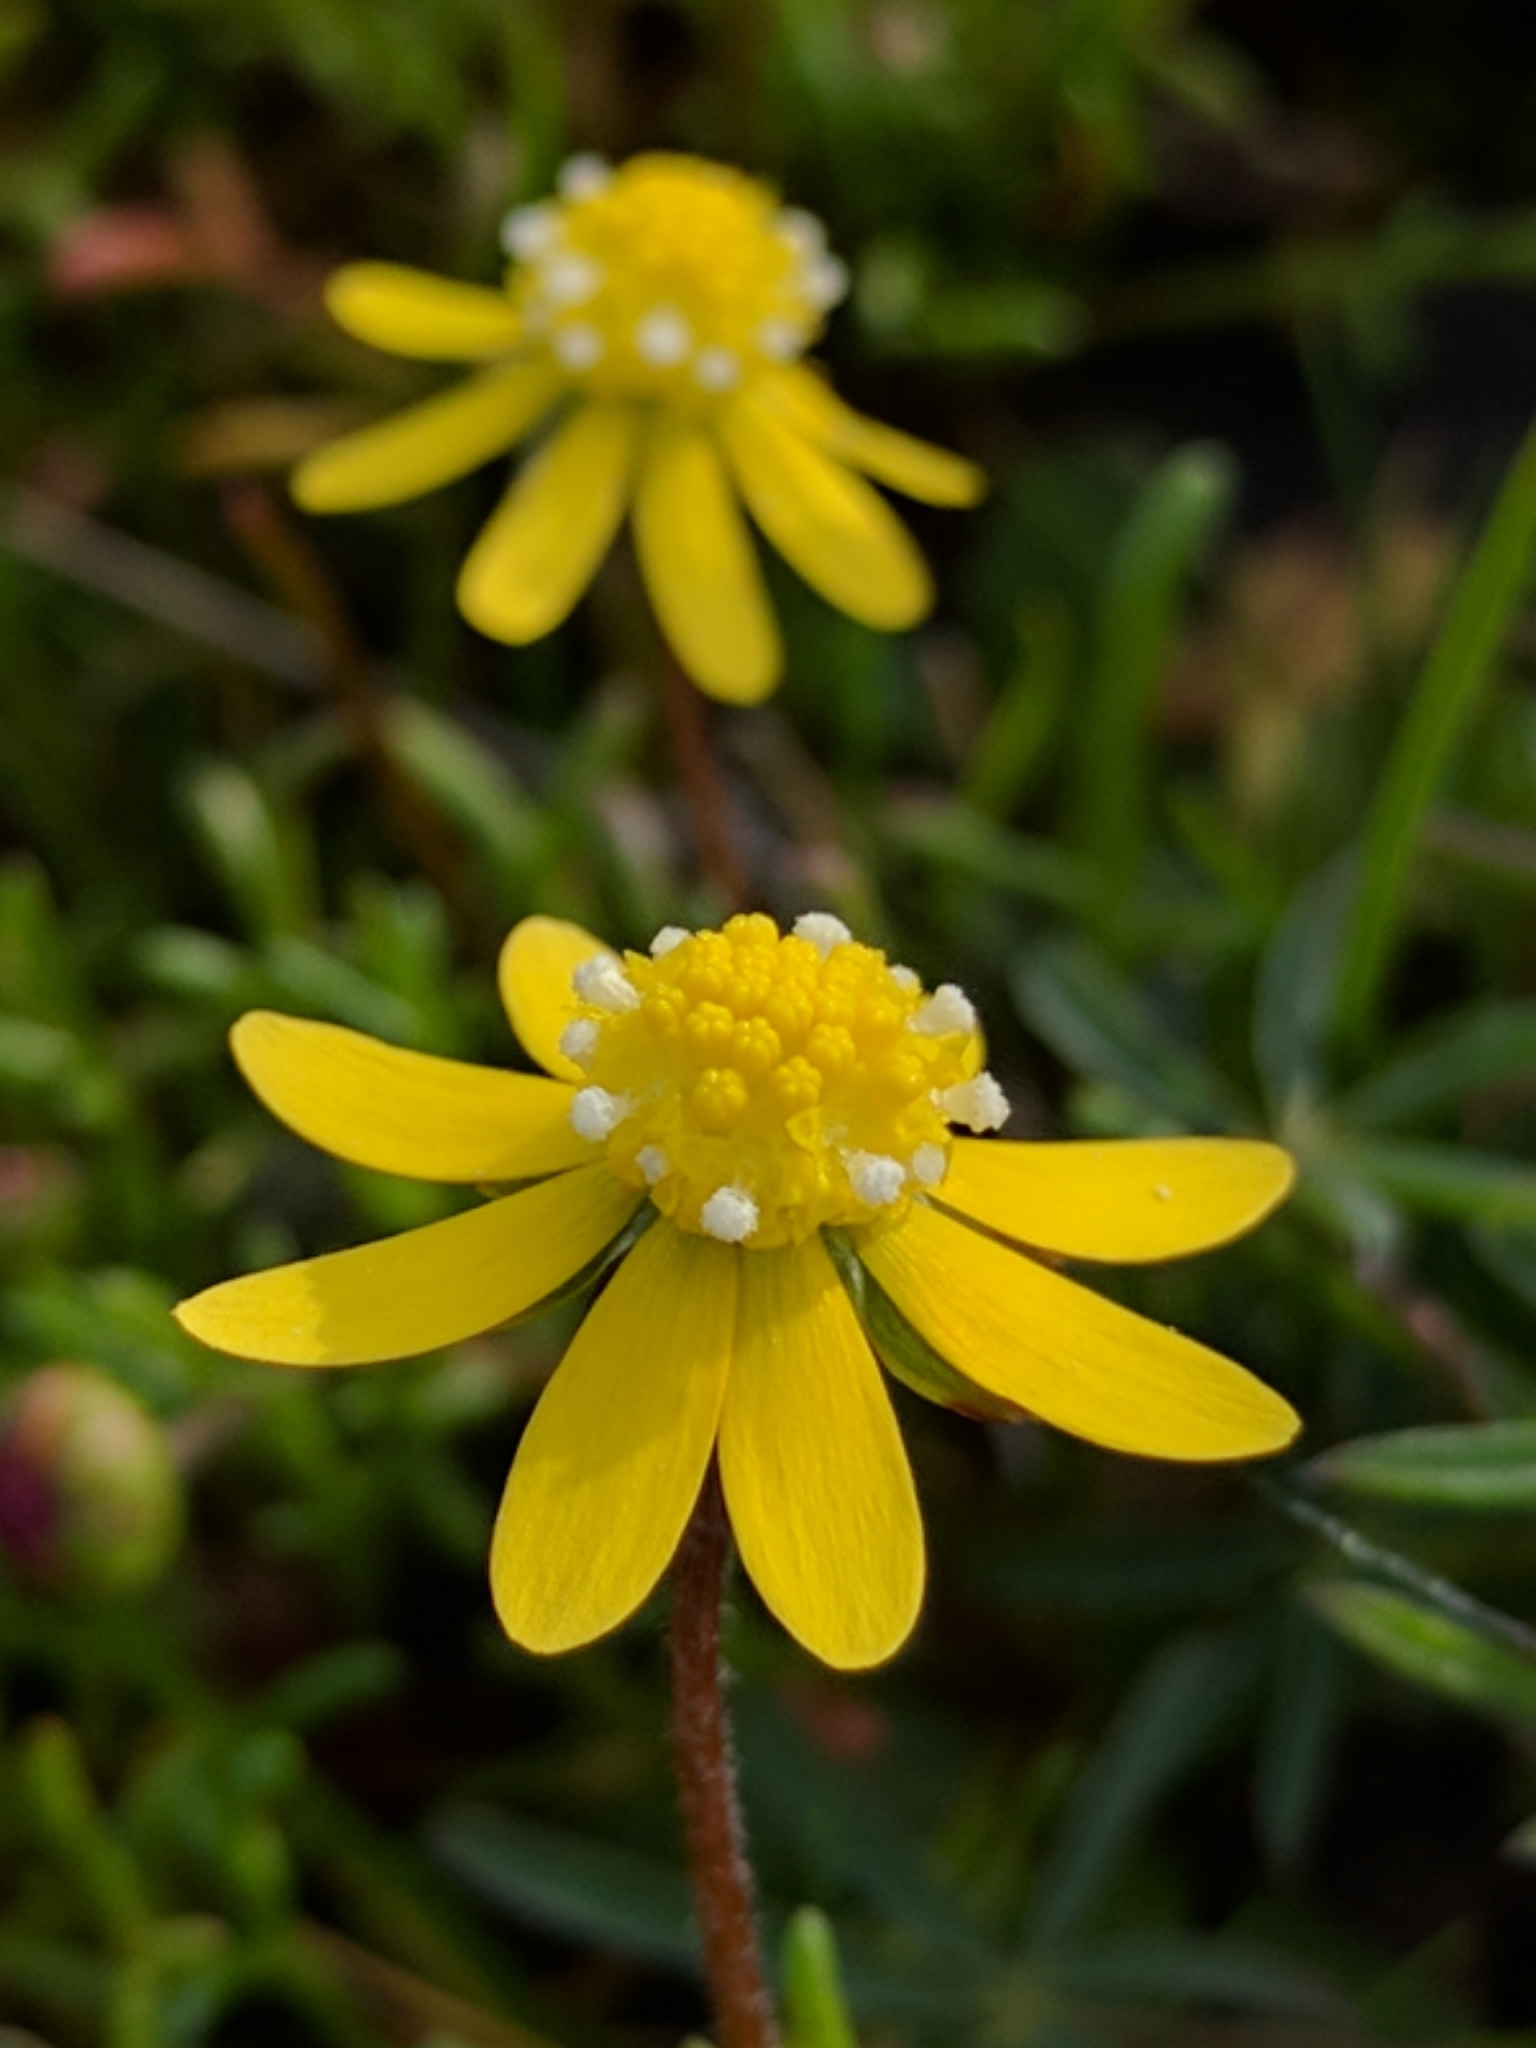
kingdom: Plantae
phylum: Tracheophyta
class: Magnoliopsida
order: Asterales
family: Asteraceae
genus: Blennosperma
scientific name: Blennosperma nanum
